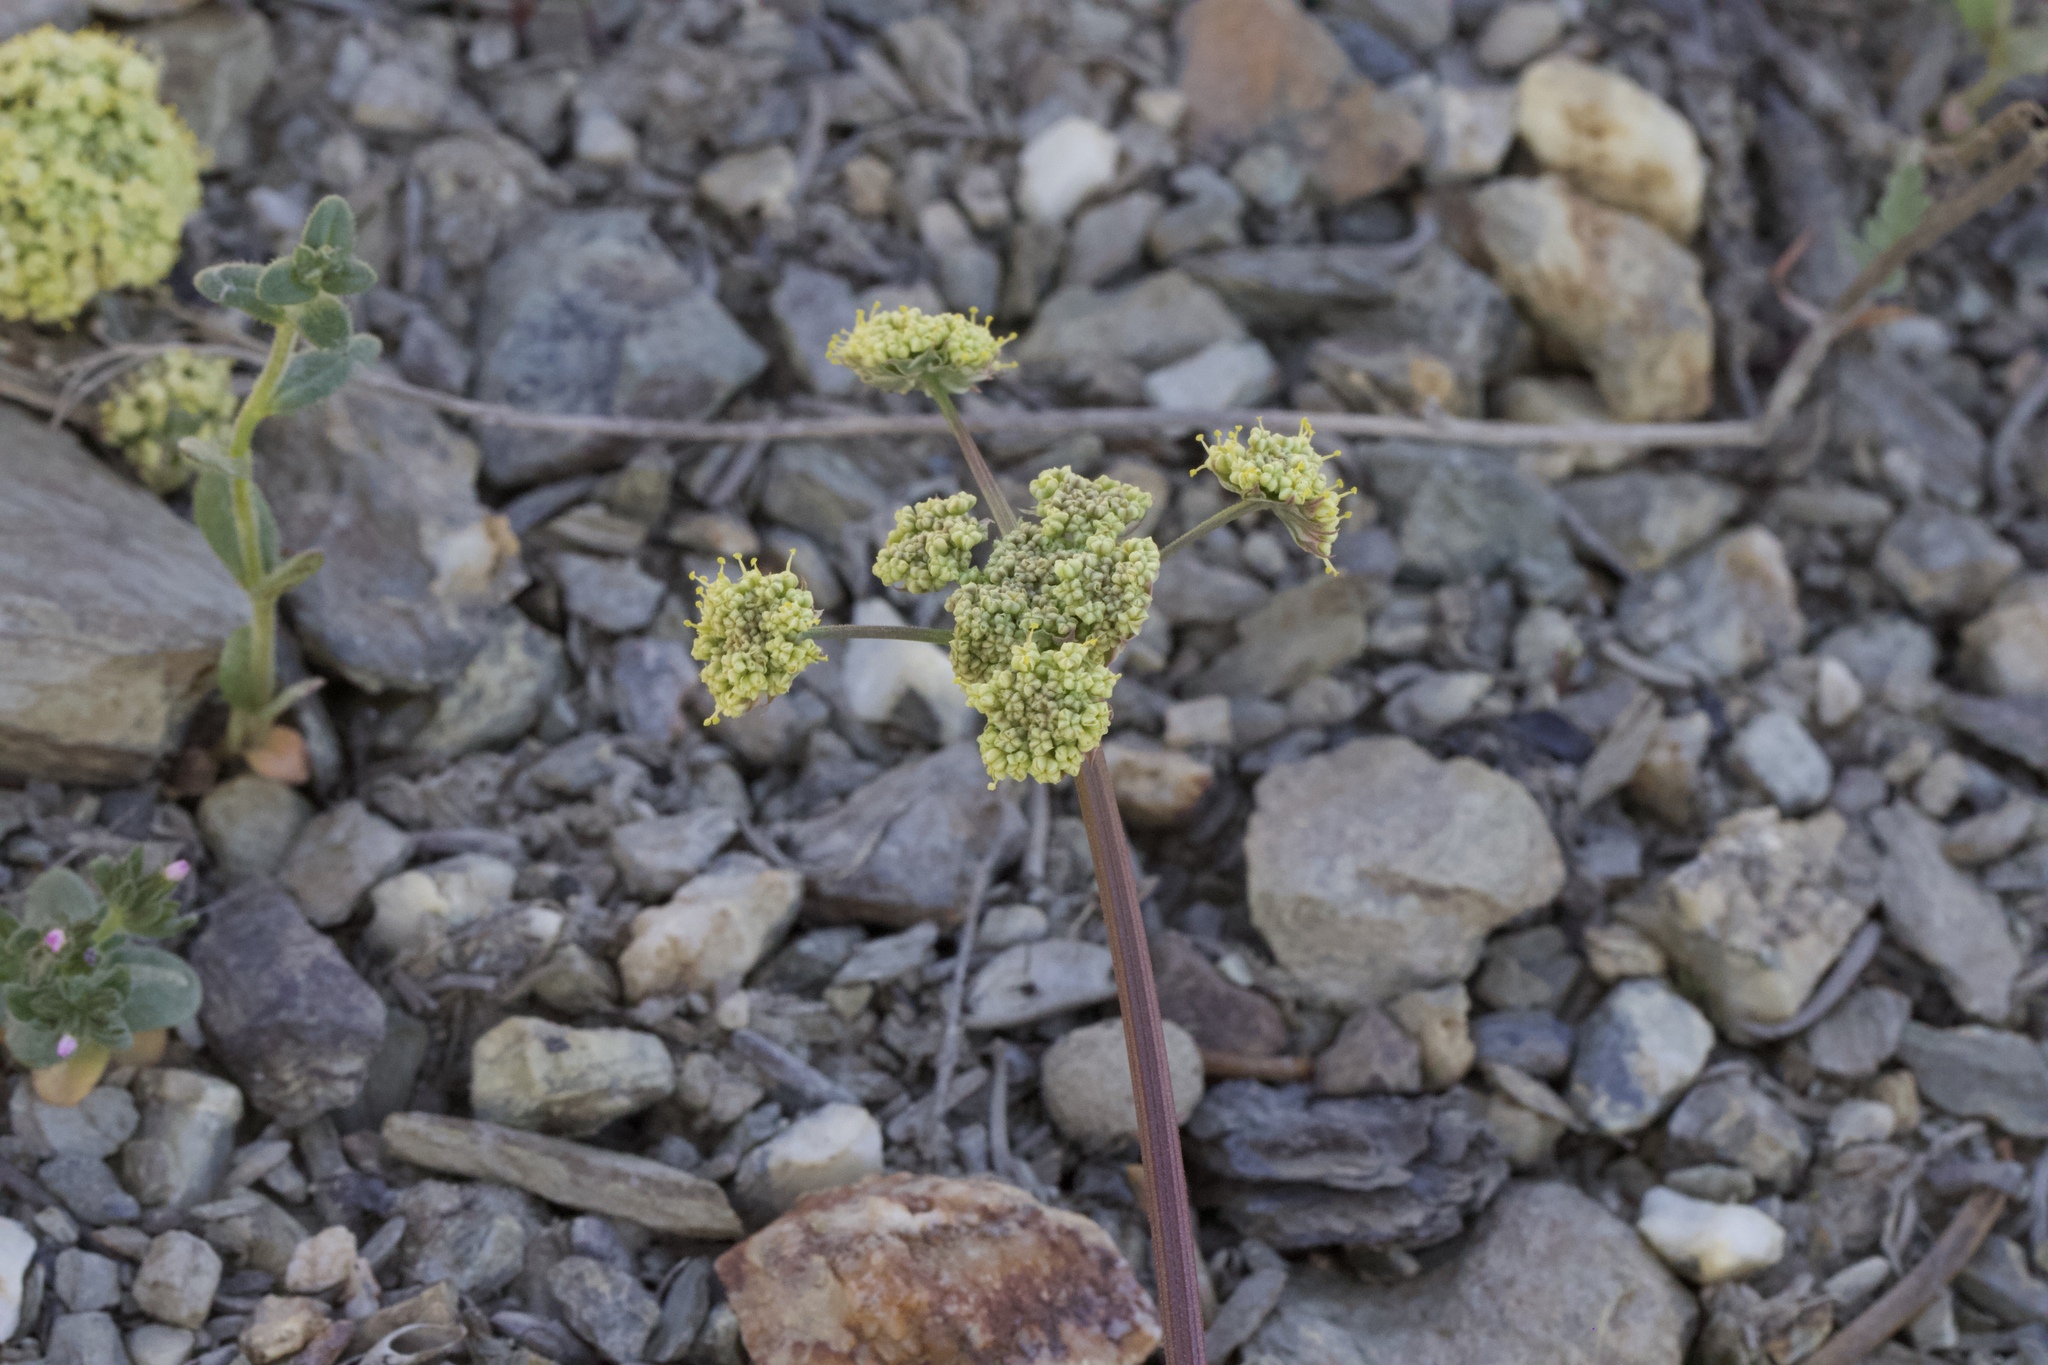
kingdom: Plantae
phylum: Tracheophyta
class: Magnoliopsida
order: Apiales
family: Apiaceae
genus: Lomatium
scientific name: Lomatium macrocarpum
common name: Big-seed biscuitroot
